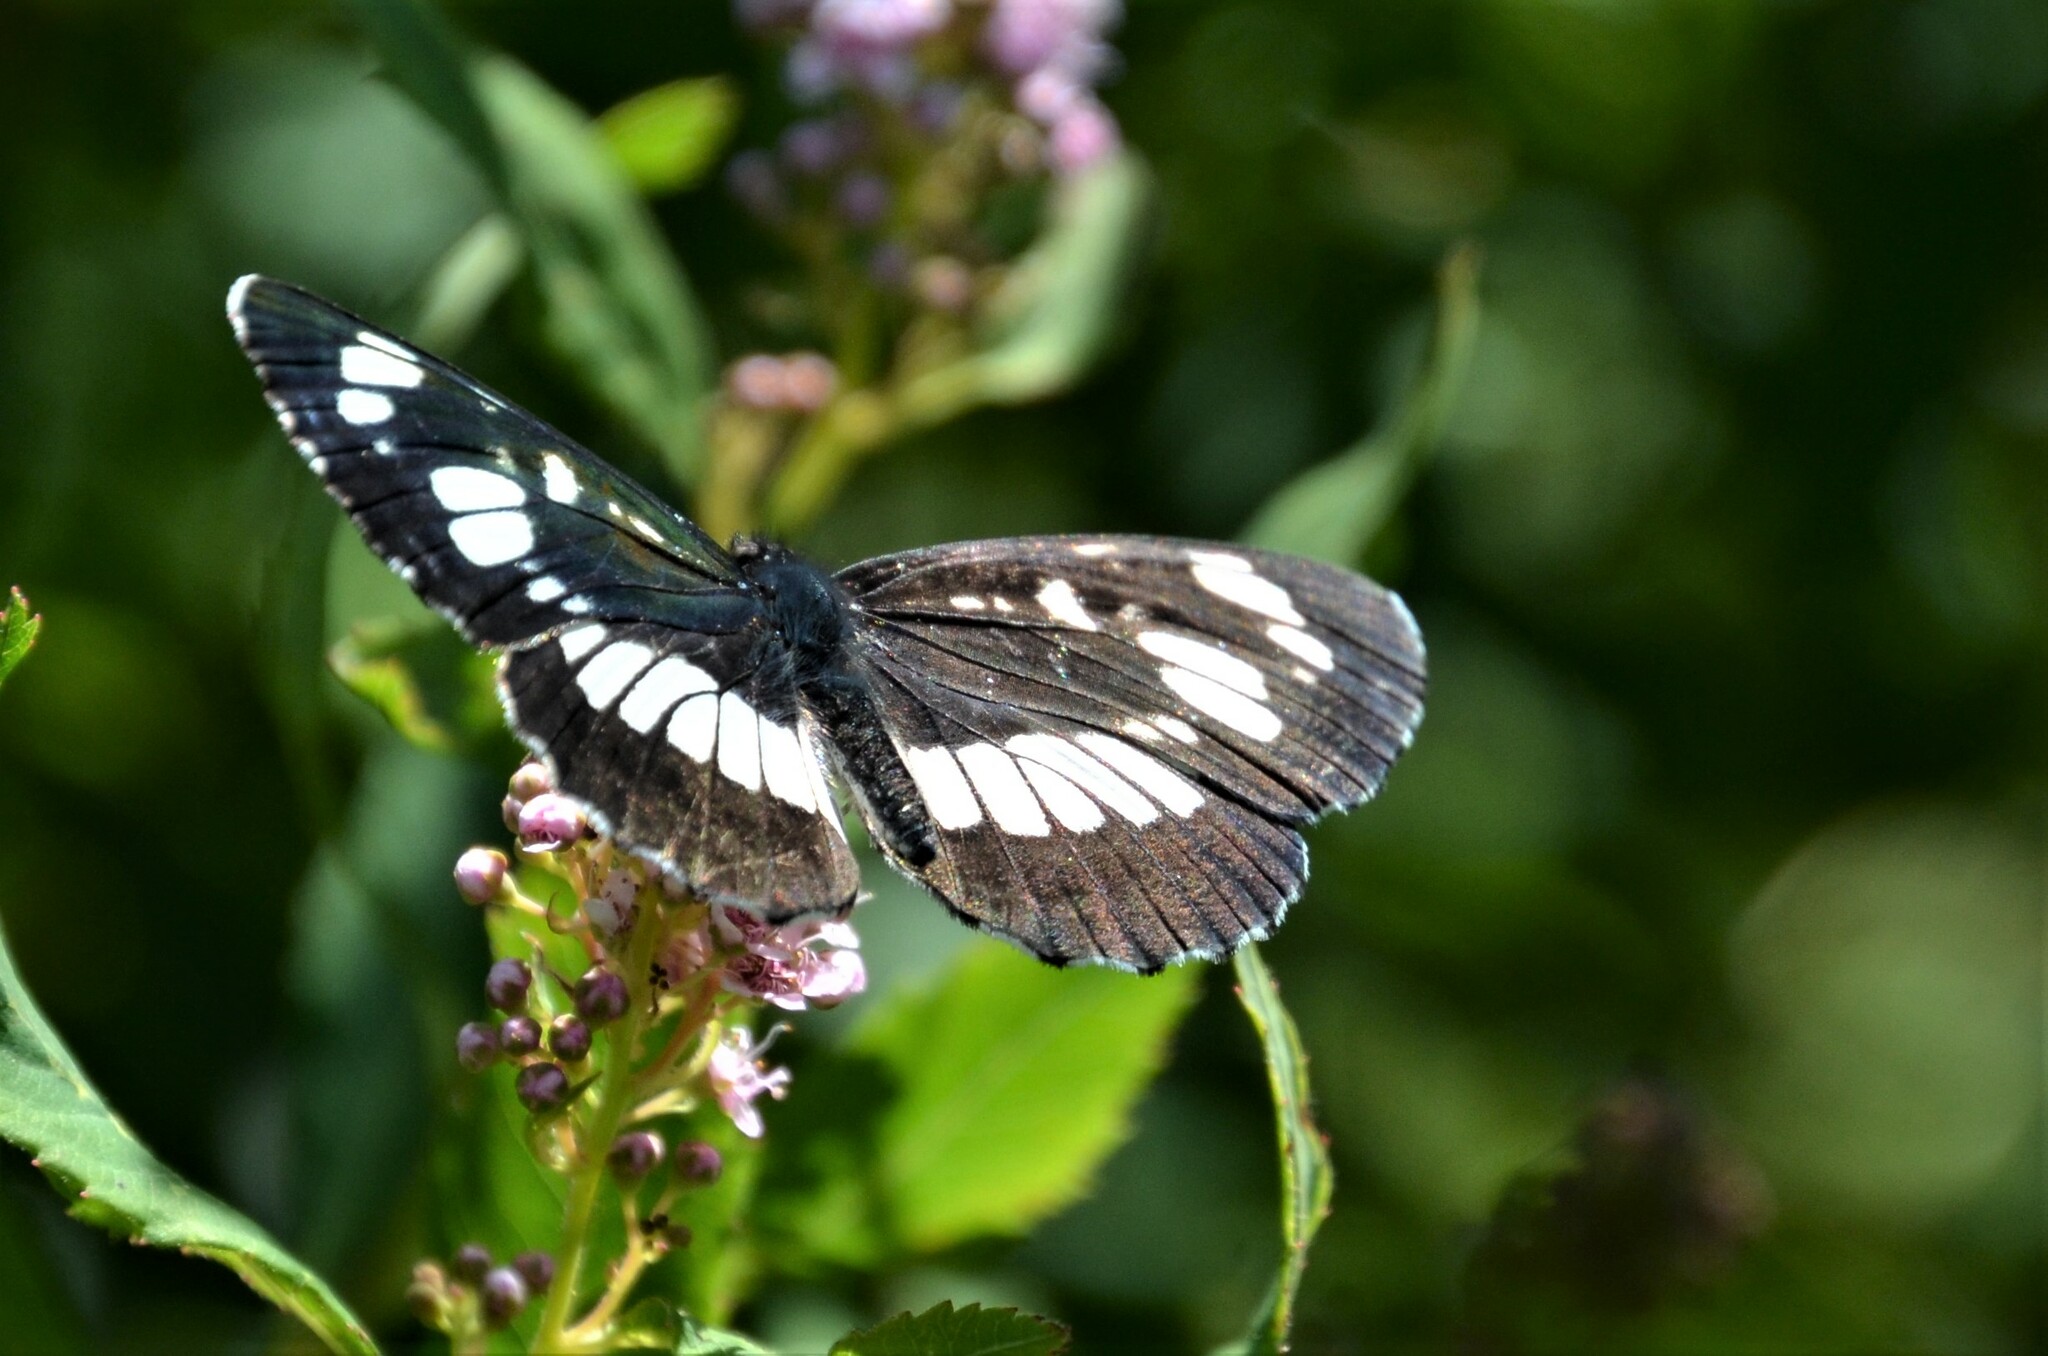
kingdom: Animalia
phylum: Arthropoda
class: Insecta
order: Lepidoptera
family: Nymphalidae
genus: Neptis
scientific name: Neptis rivularis
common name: Hungarian glider
